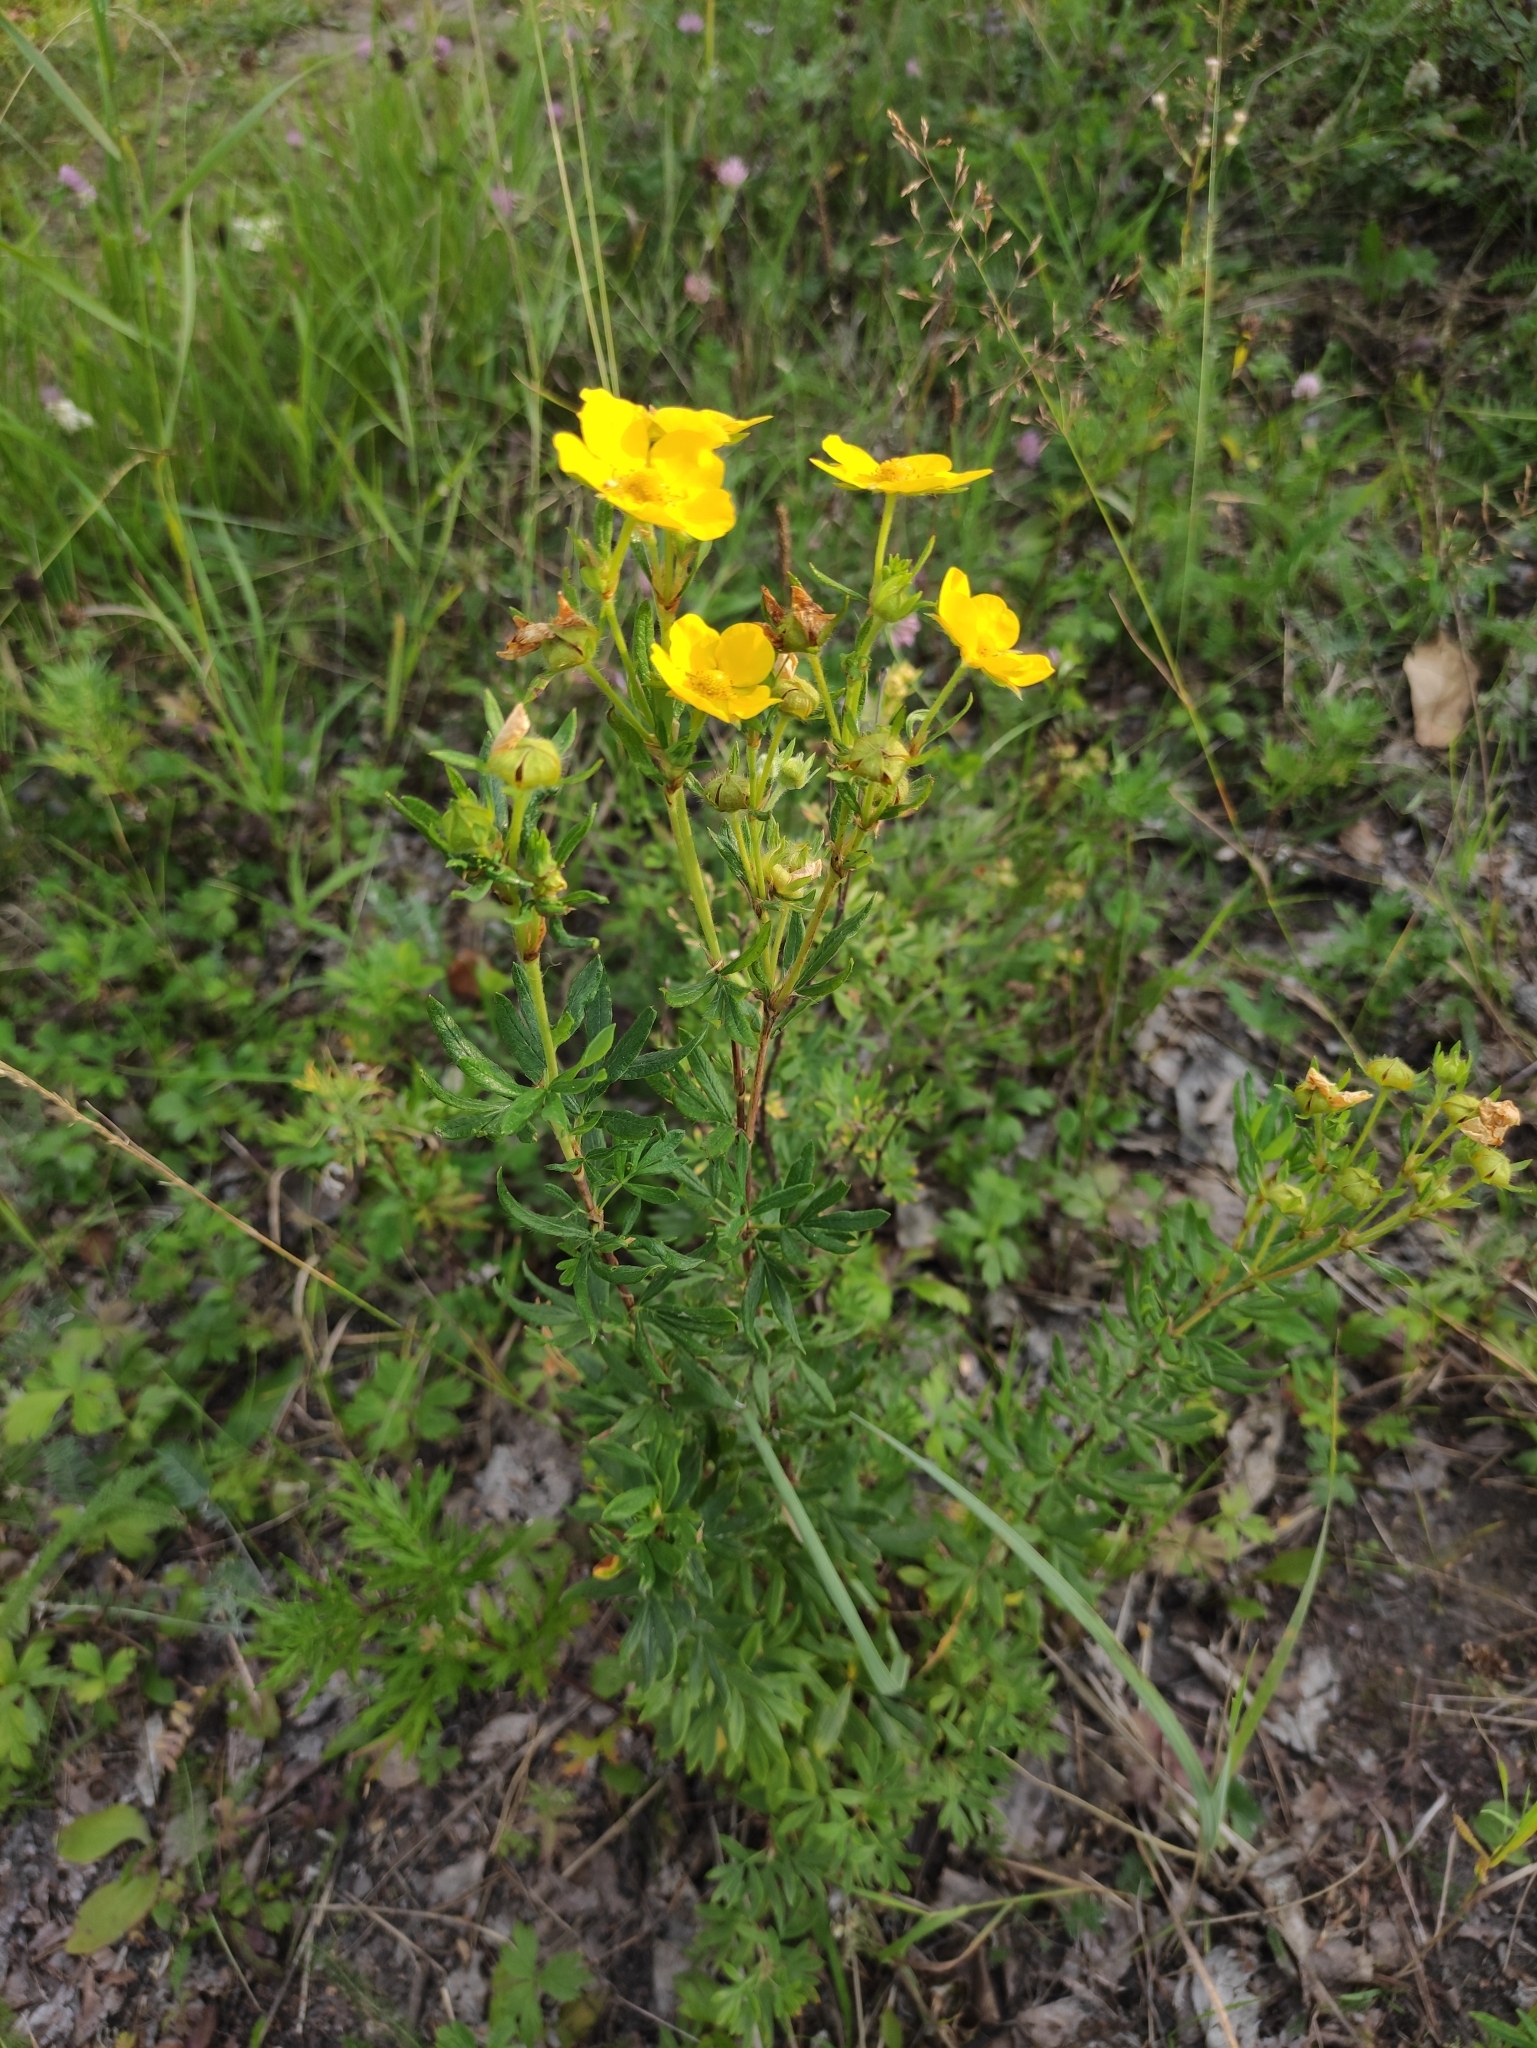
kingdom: Plantae
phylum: Tracheophyta
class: Magnoliopsida
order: Rosales
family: Rosaceae
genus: Dasiphora
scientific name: Dasiphora fruticosa
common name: Shrubby cinquefoil
